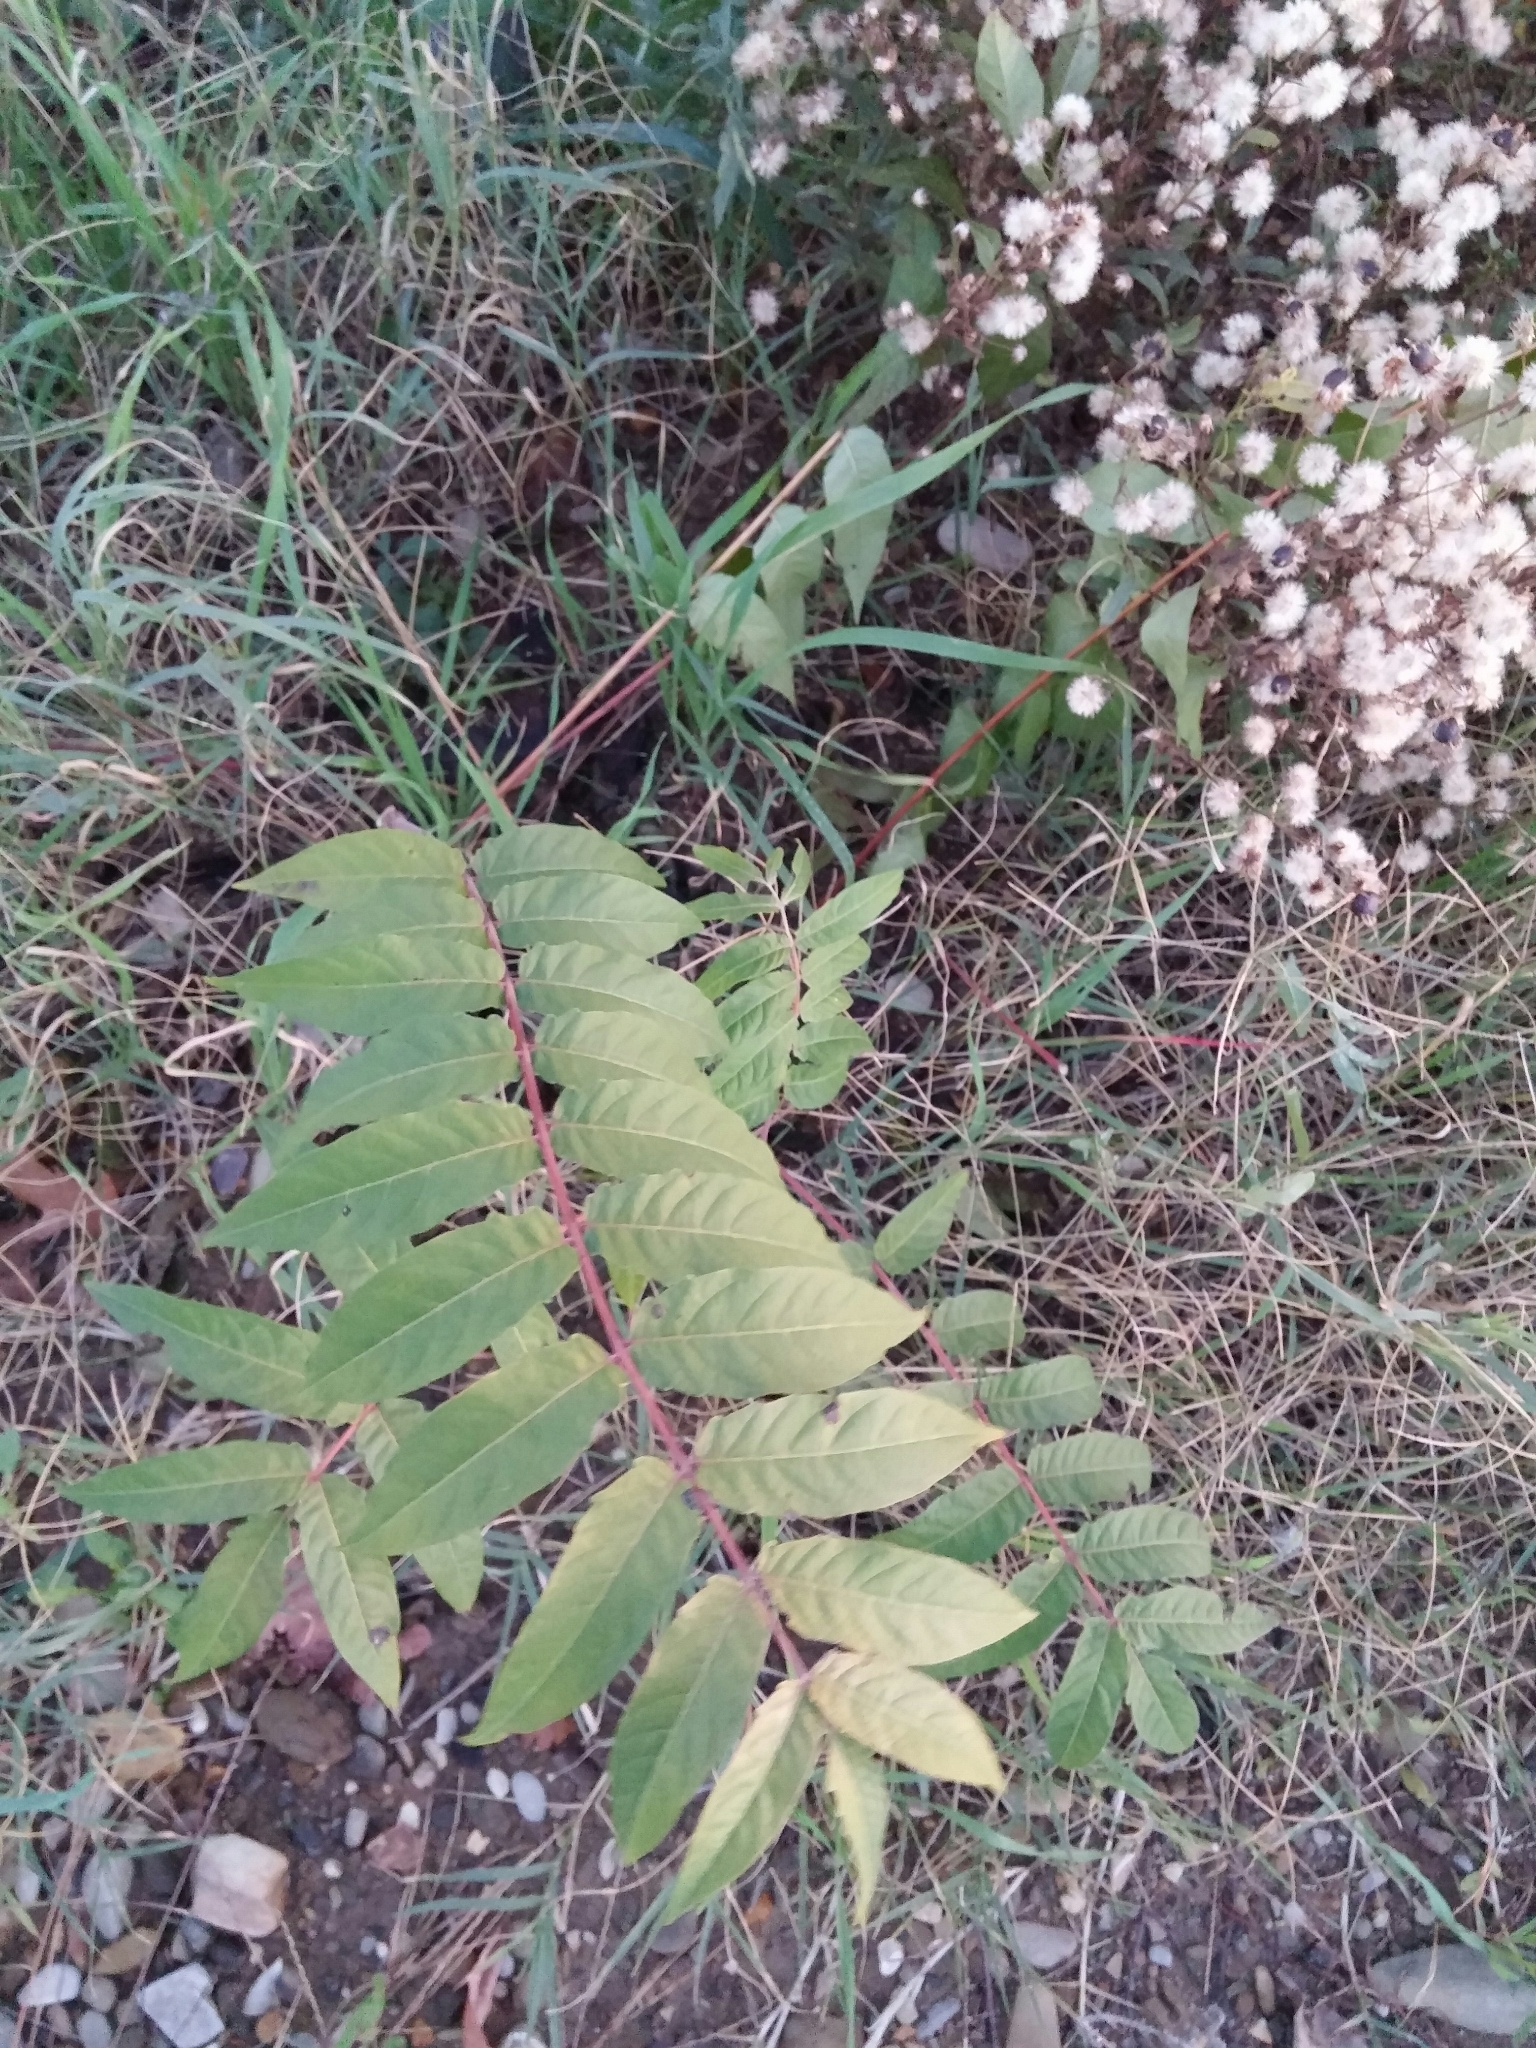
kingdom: Plantae
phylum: Tracheophyta
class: Magnoliopsida
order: Sapindales
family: Simaroubaceae
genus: Ailanthus
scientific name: Ailanthus altissima
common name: Tree-of-heaven
